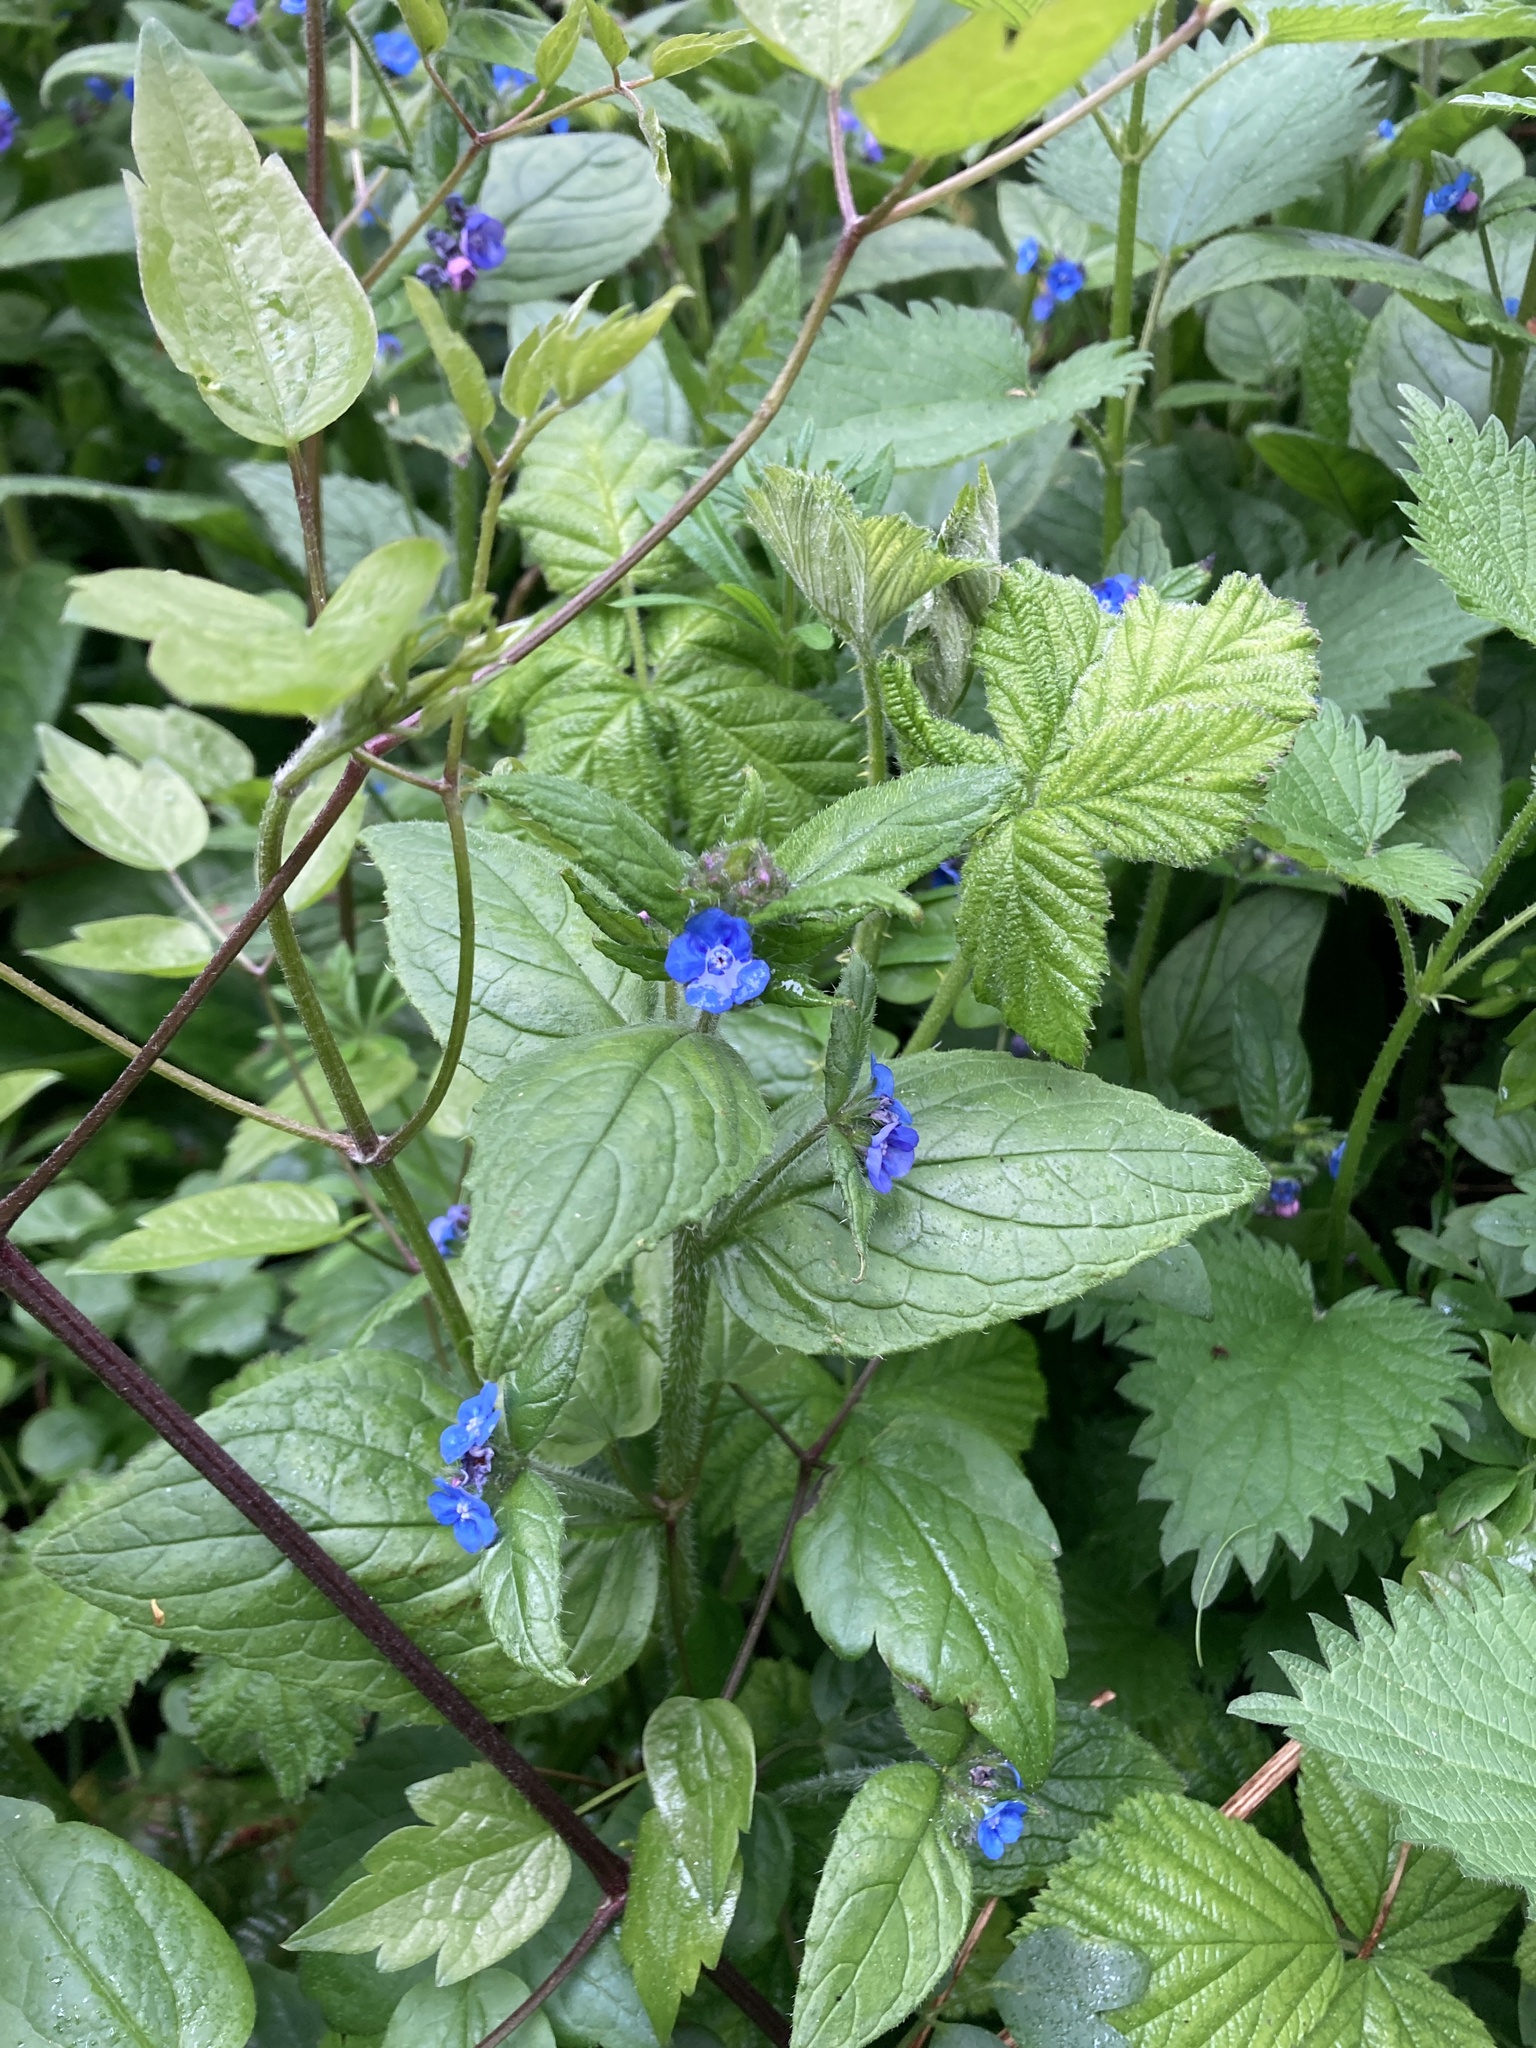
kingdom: Plantae
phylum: Tracheophyta
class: Magnoliopsida
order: Boraginales
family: Boraginaceae
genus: Pentaglottis
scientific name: Pentaglottis sempervirens
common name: Green alkanet
